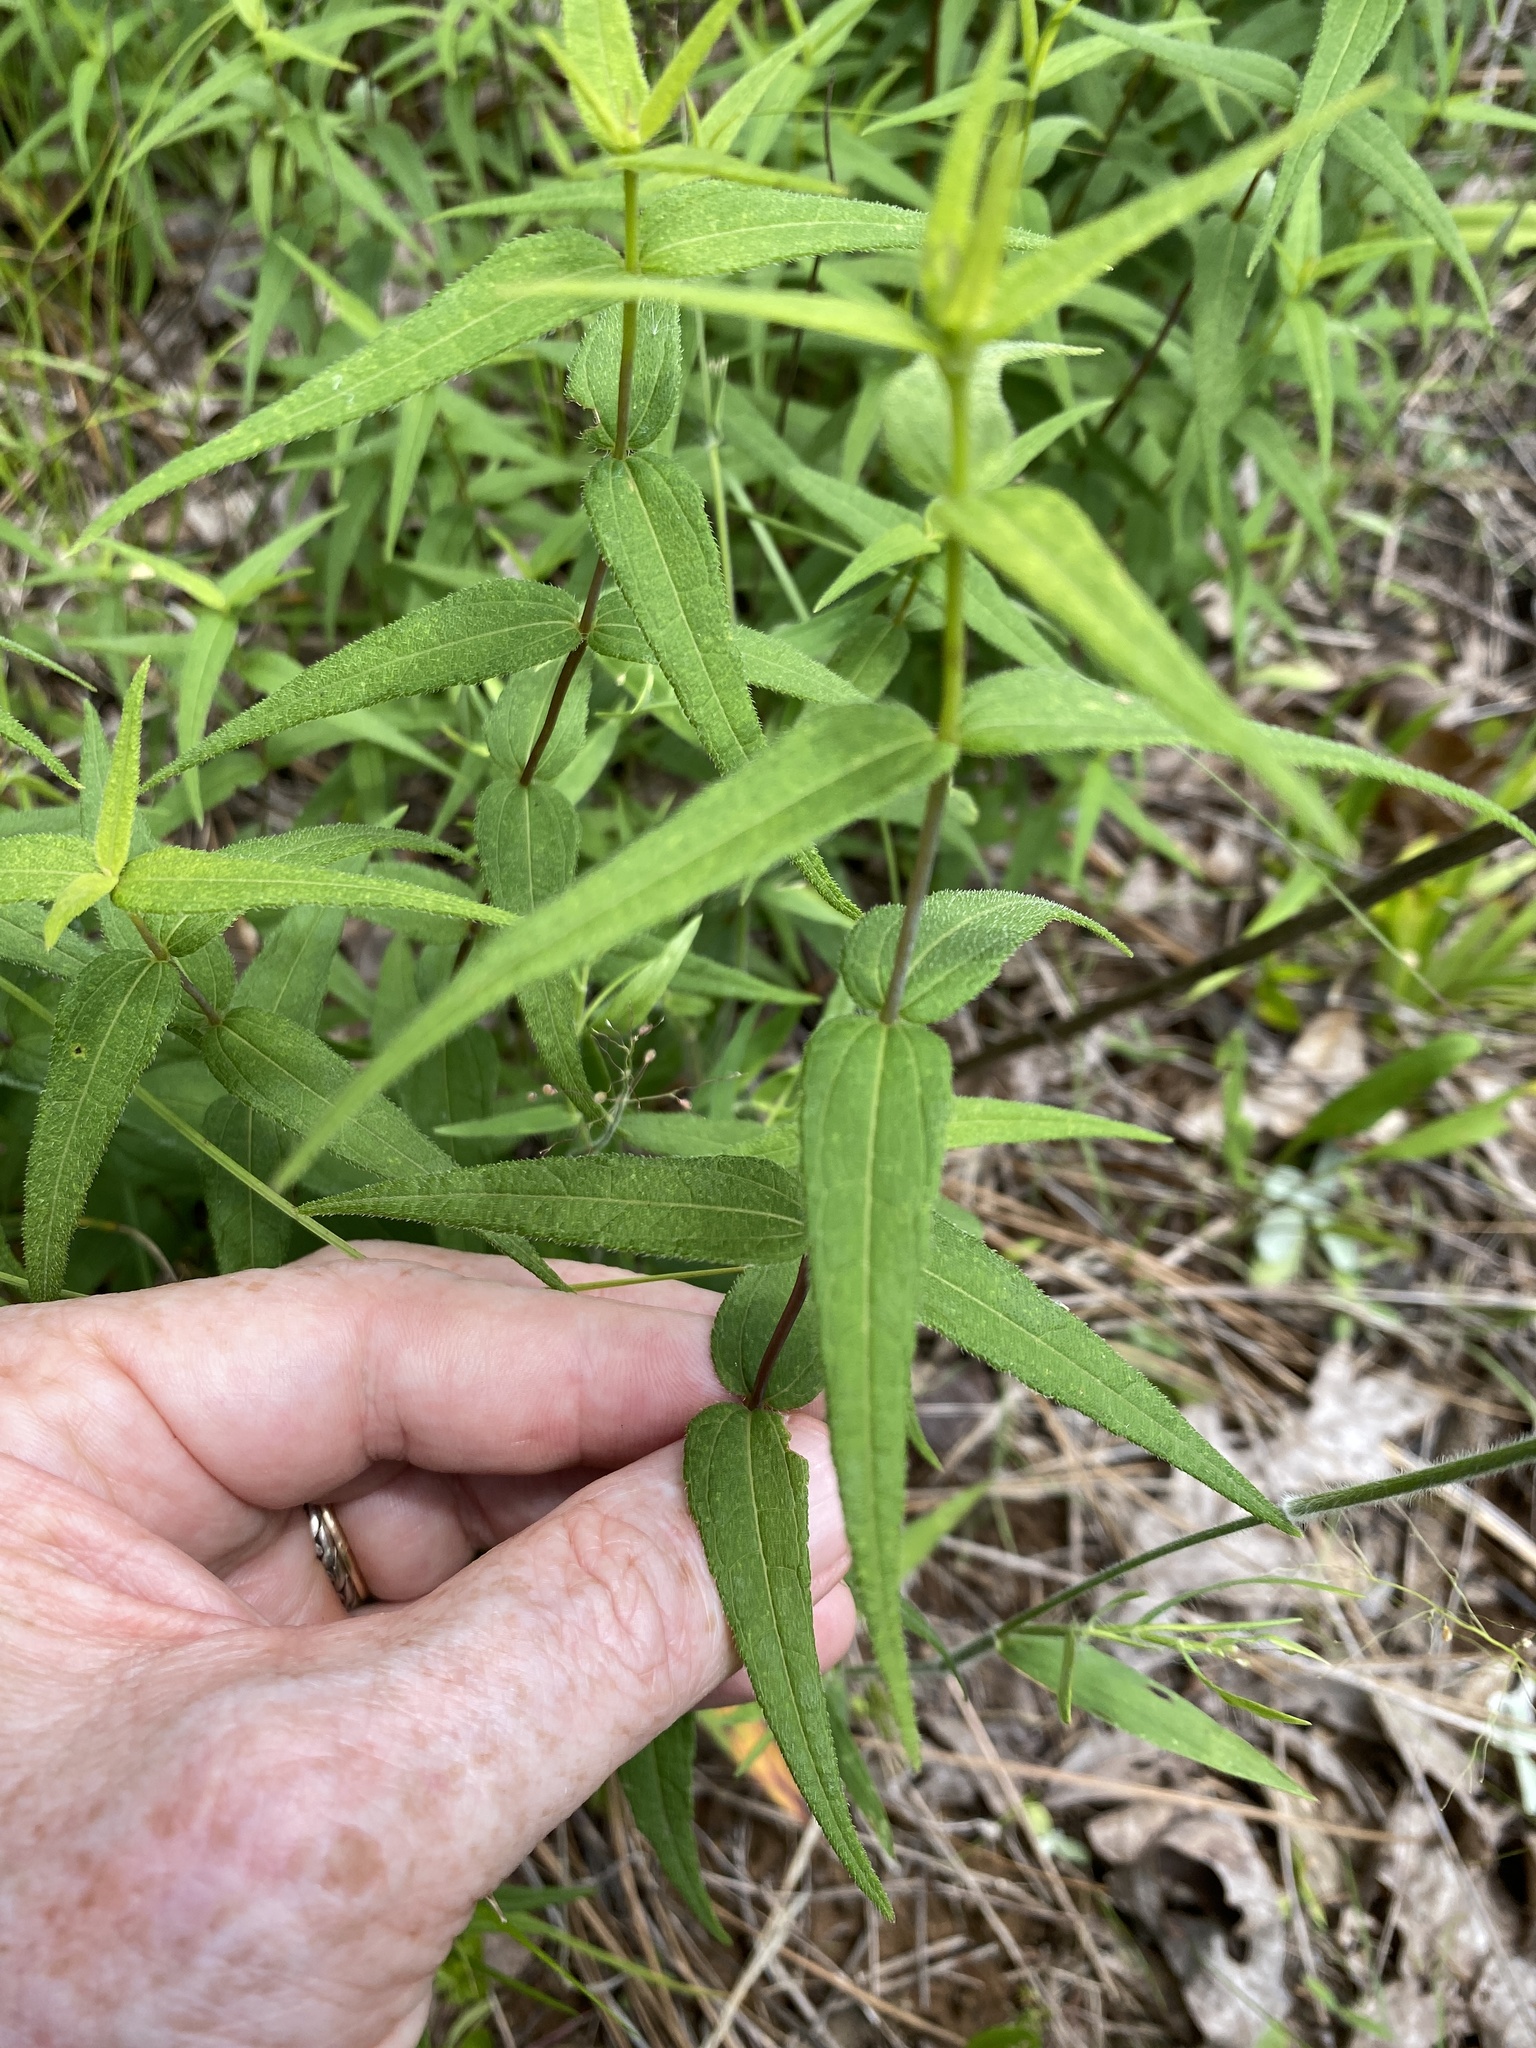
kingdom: Plantae
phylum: Tracheophyta
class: Magnoliopsida
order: Asterales
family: Asteraceae
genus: Helianthus
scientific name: Helianthus divaricatus
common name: Divergent sunflower
